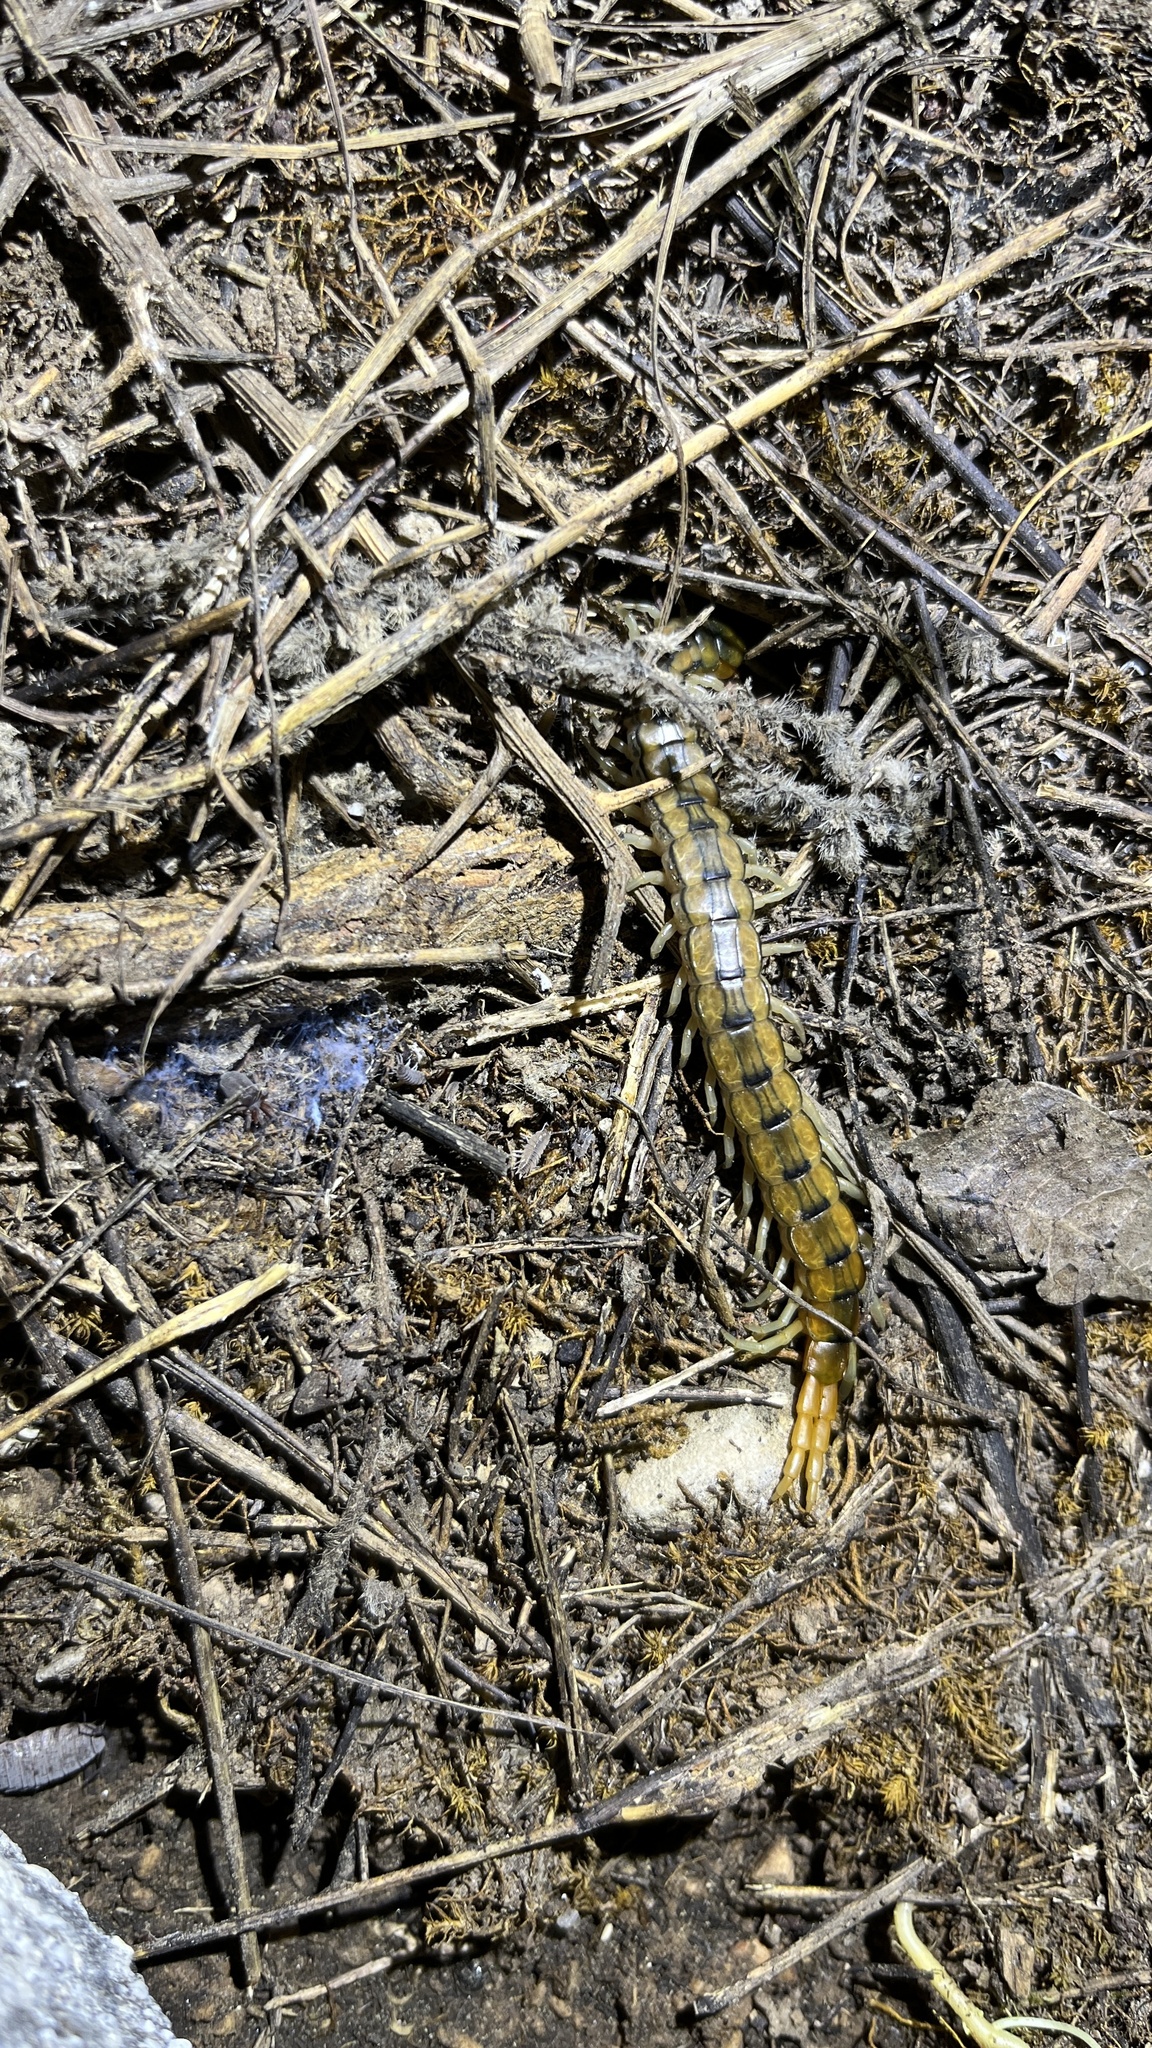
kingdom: Animalia
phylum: Arthropoda
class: Chilopoda
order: Scolopendromorpha
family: Scolopendridae
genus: Scolopendra
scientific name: Scolopendra cingulata
